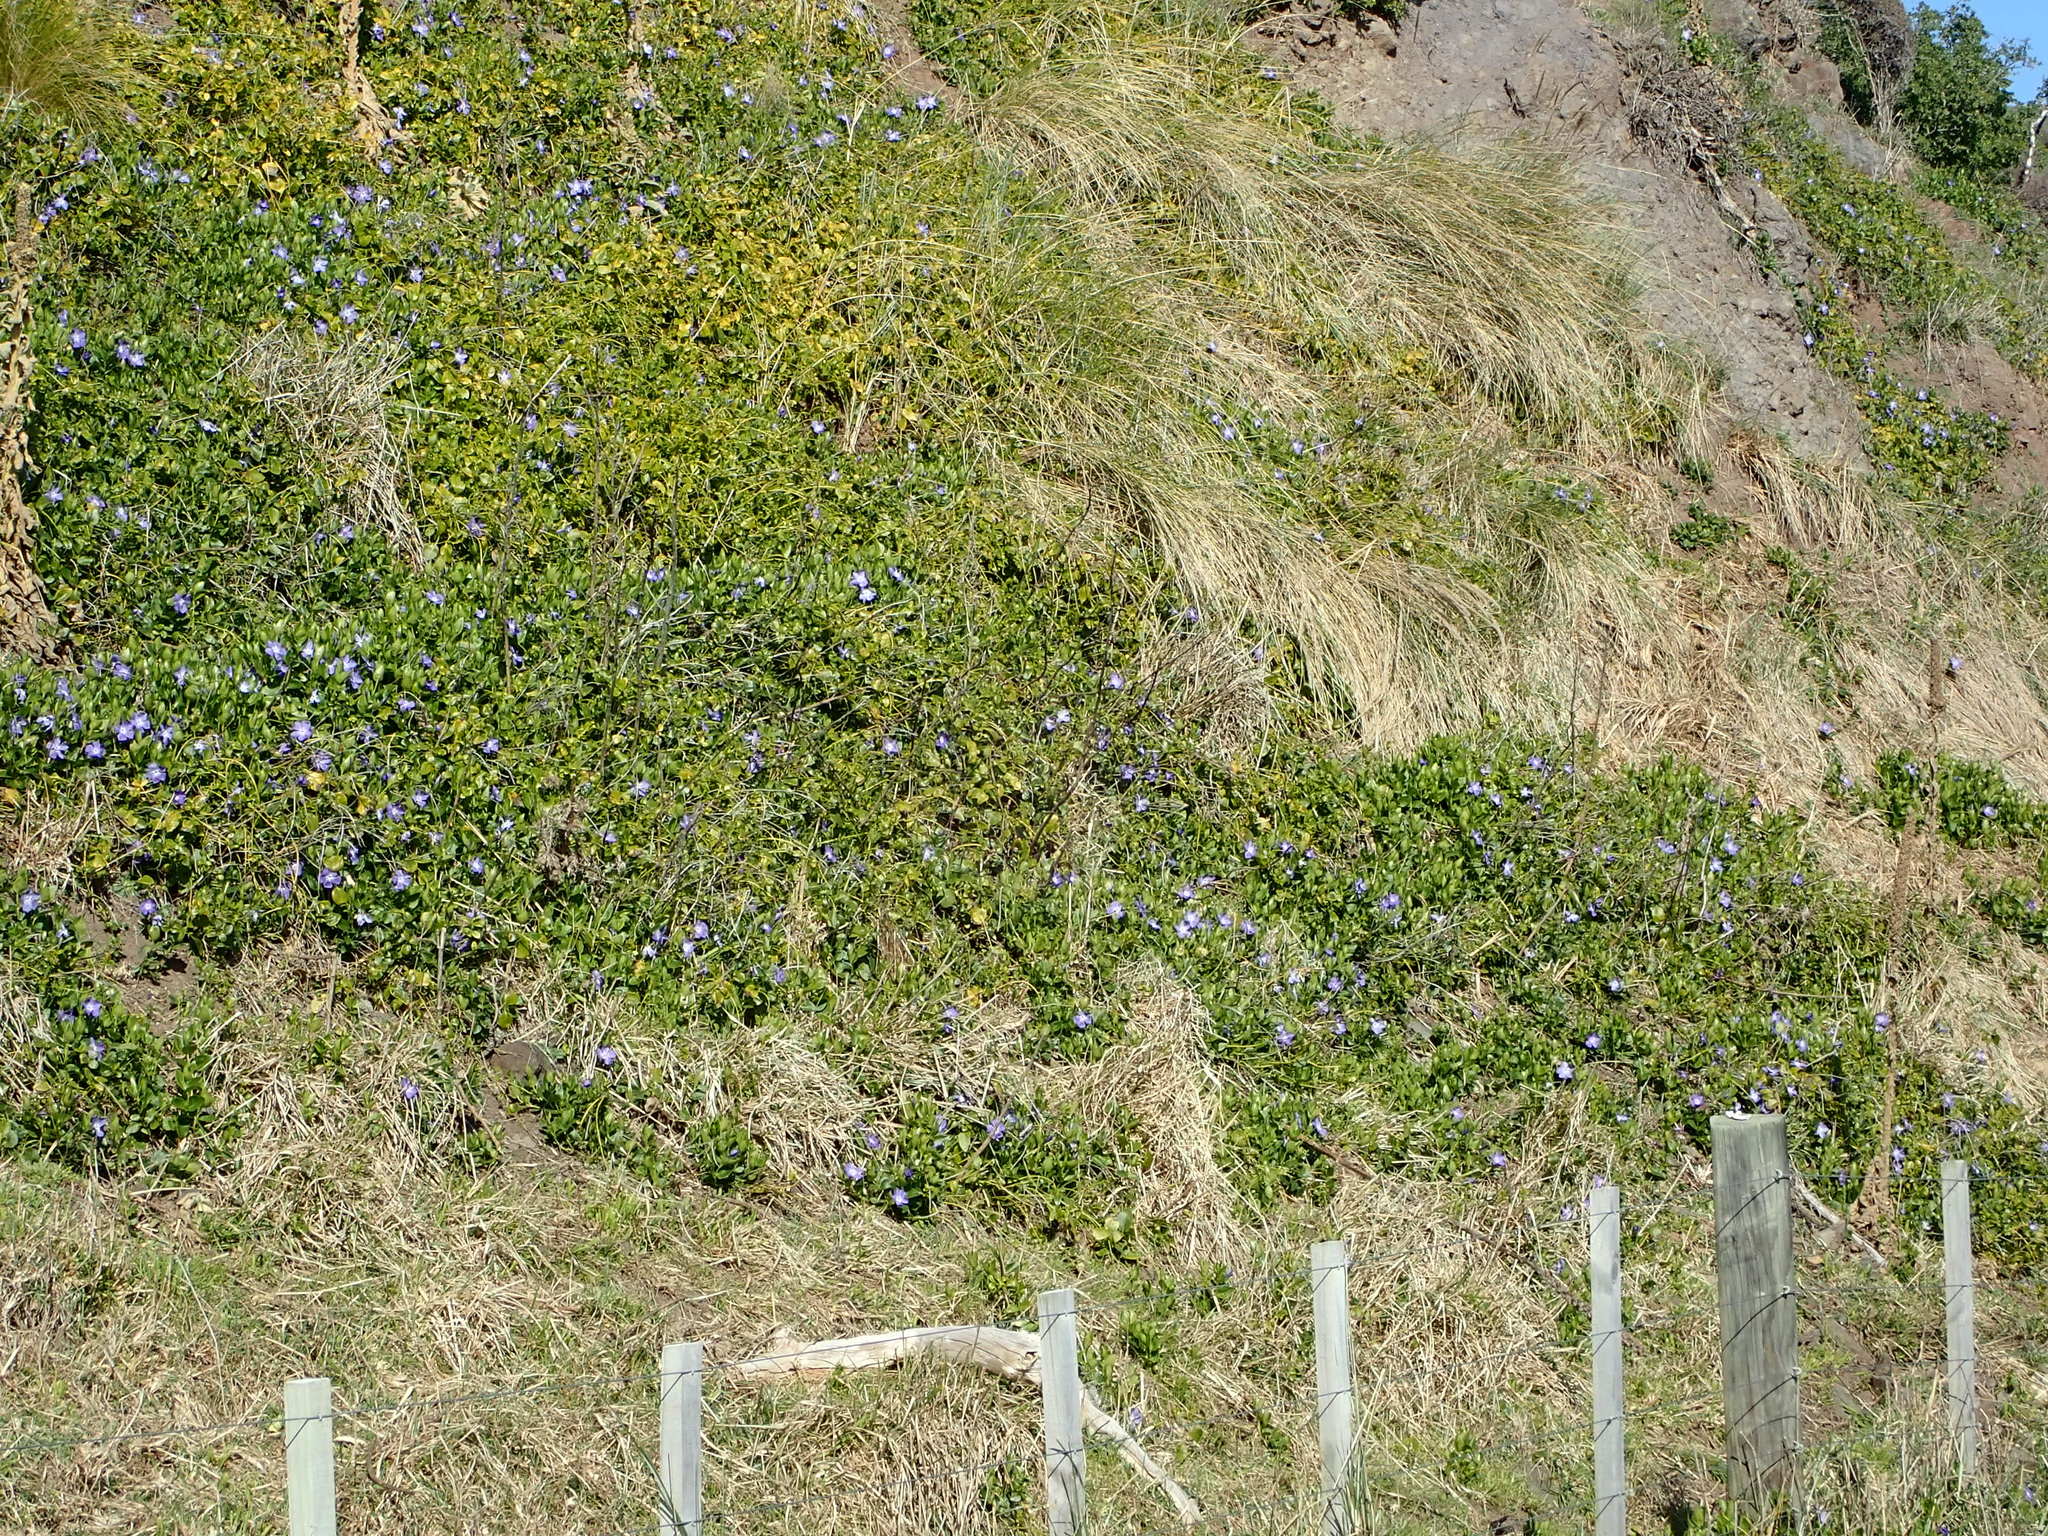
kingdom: Plantae
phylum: Tracheophyta
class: Magnoliopsida
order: Gentianales
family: Apocynaceae
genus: Vinca
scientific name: Vinca major
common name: Greater periwinkle
